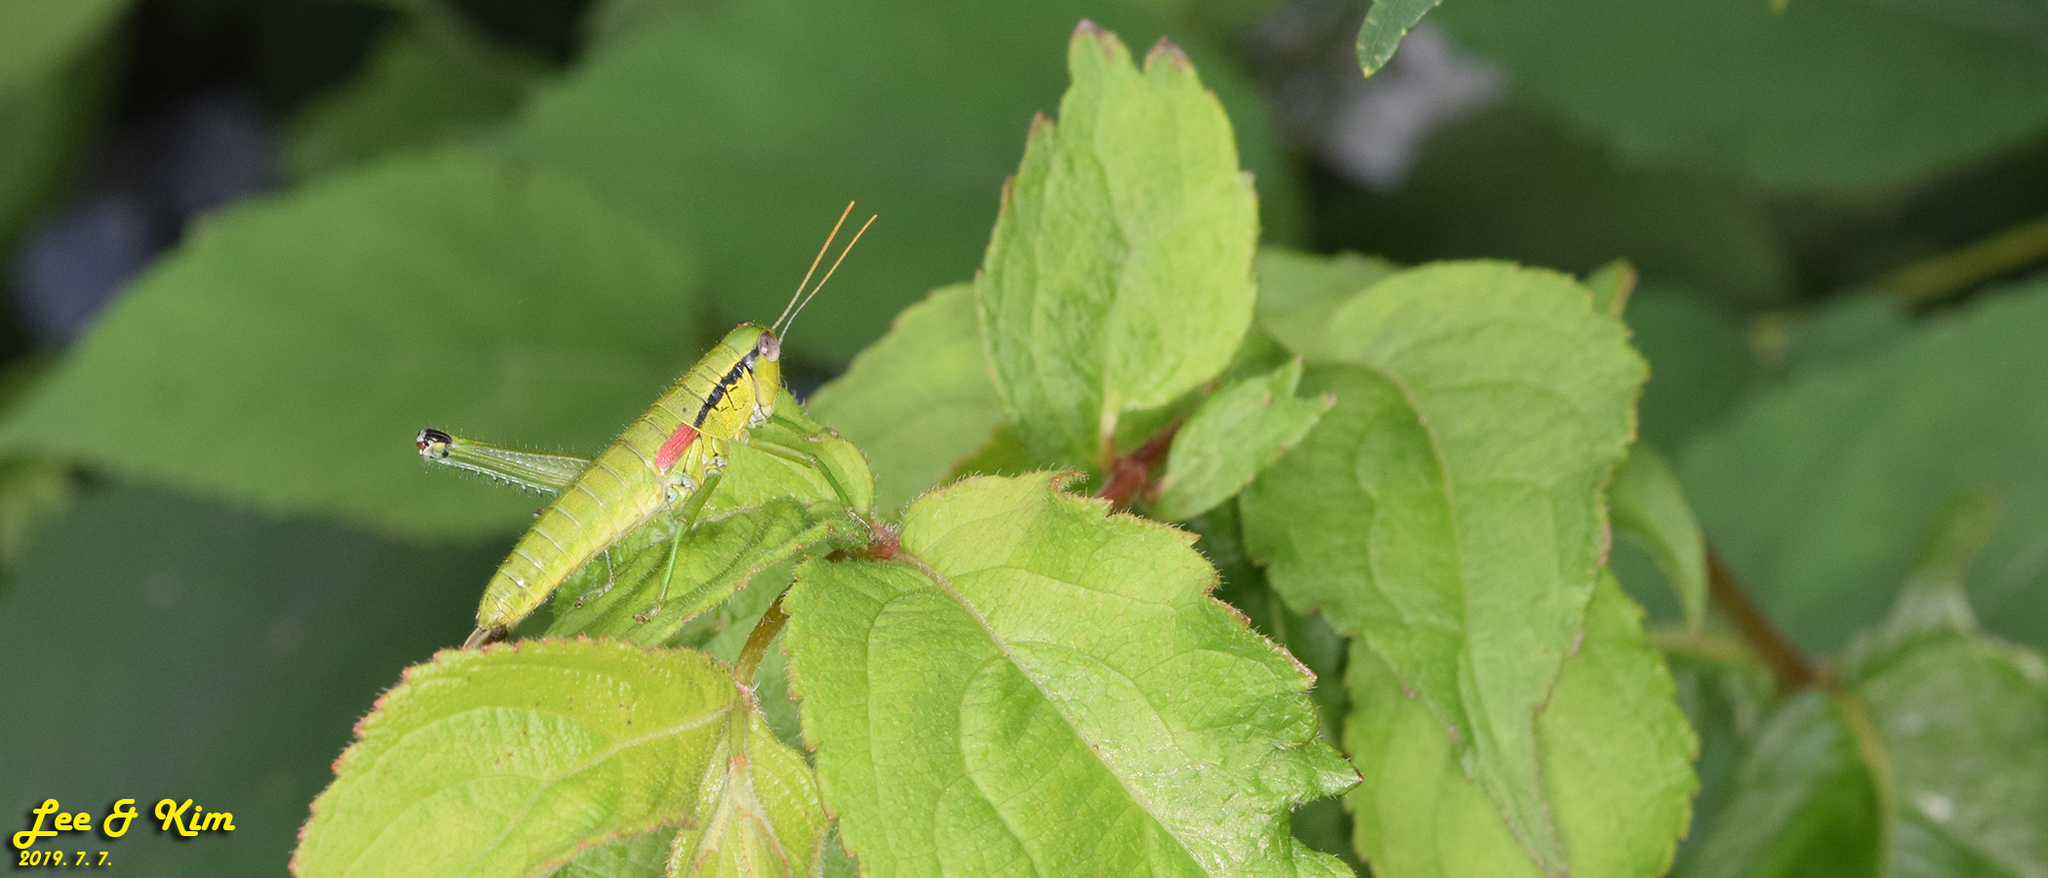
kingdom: Animalia
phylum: Arthropoda
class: Insecta
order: Orthoptera
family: Acrididae
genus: Anapodisma
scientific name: Anapodisma miramae
